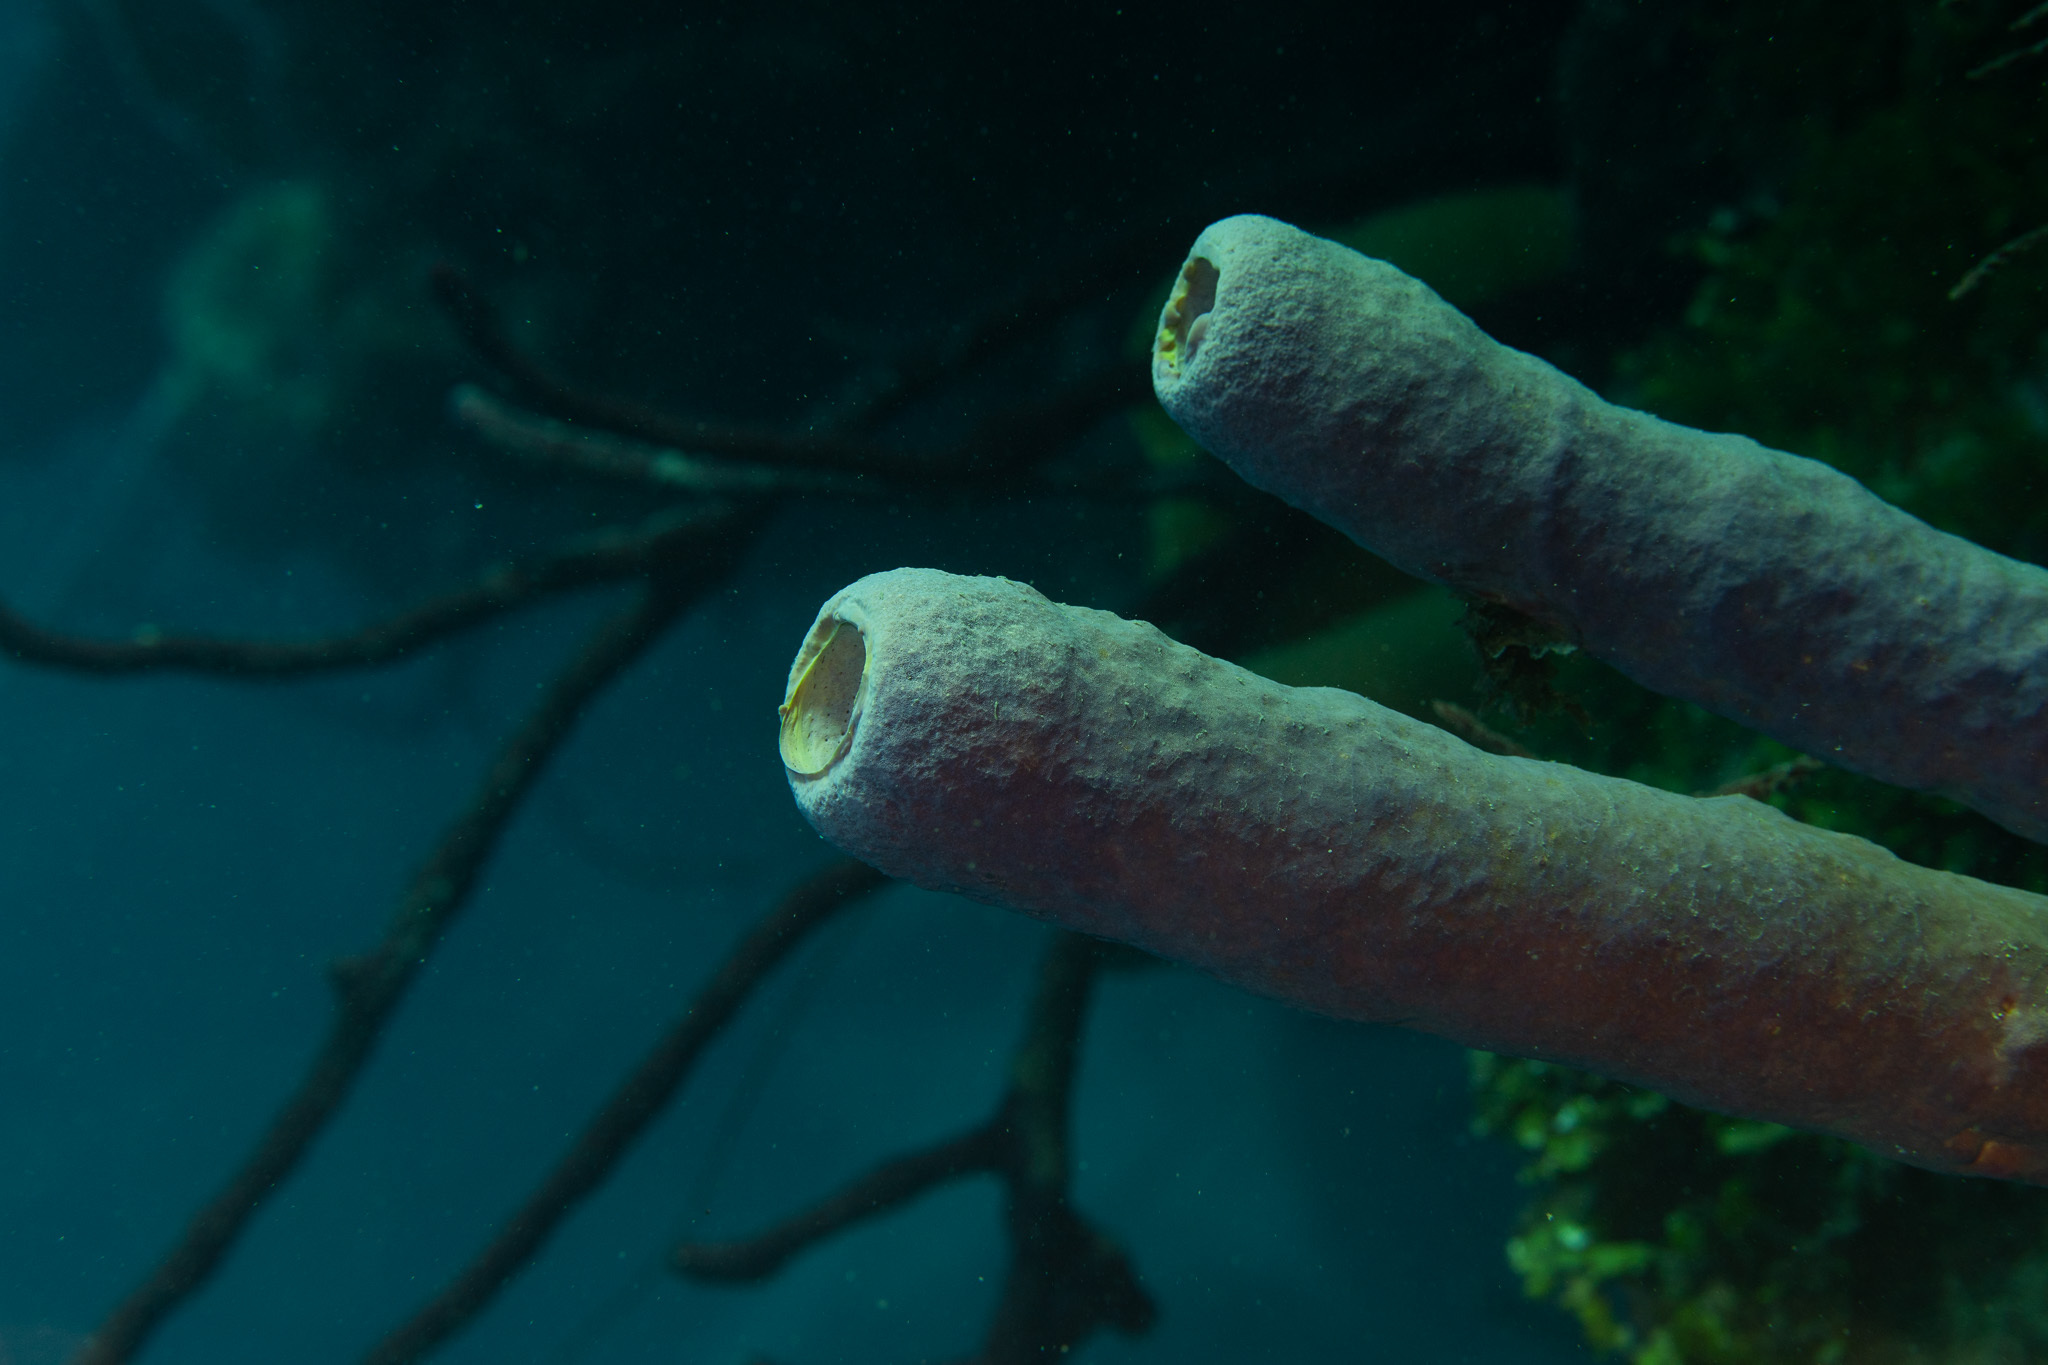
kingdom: Animalia
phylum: Porifera
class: Demospongiae
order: Verongiida
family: Aplysinidae
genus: Aplysina
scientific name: Aplysina archeri
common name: Stove-pipe sponge
